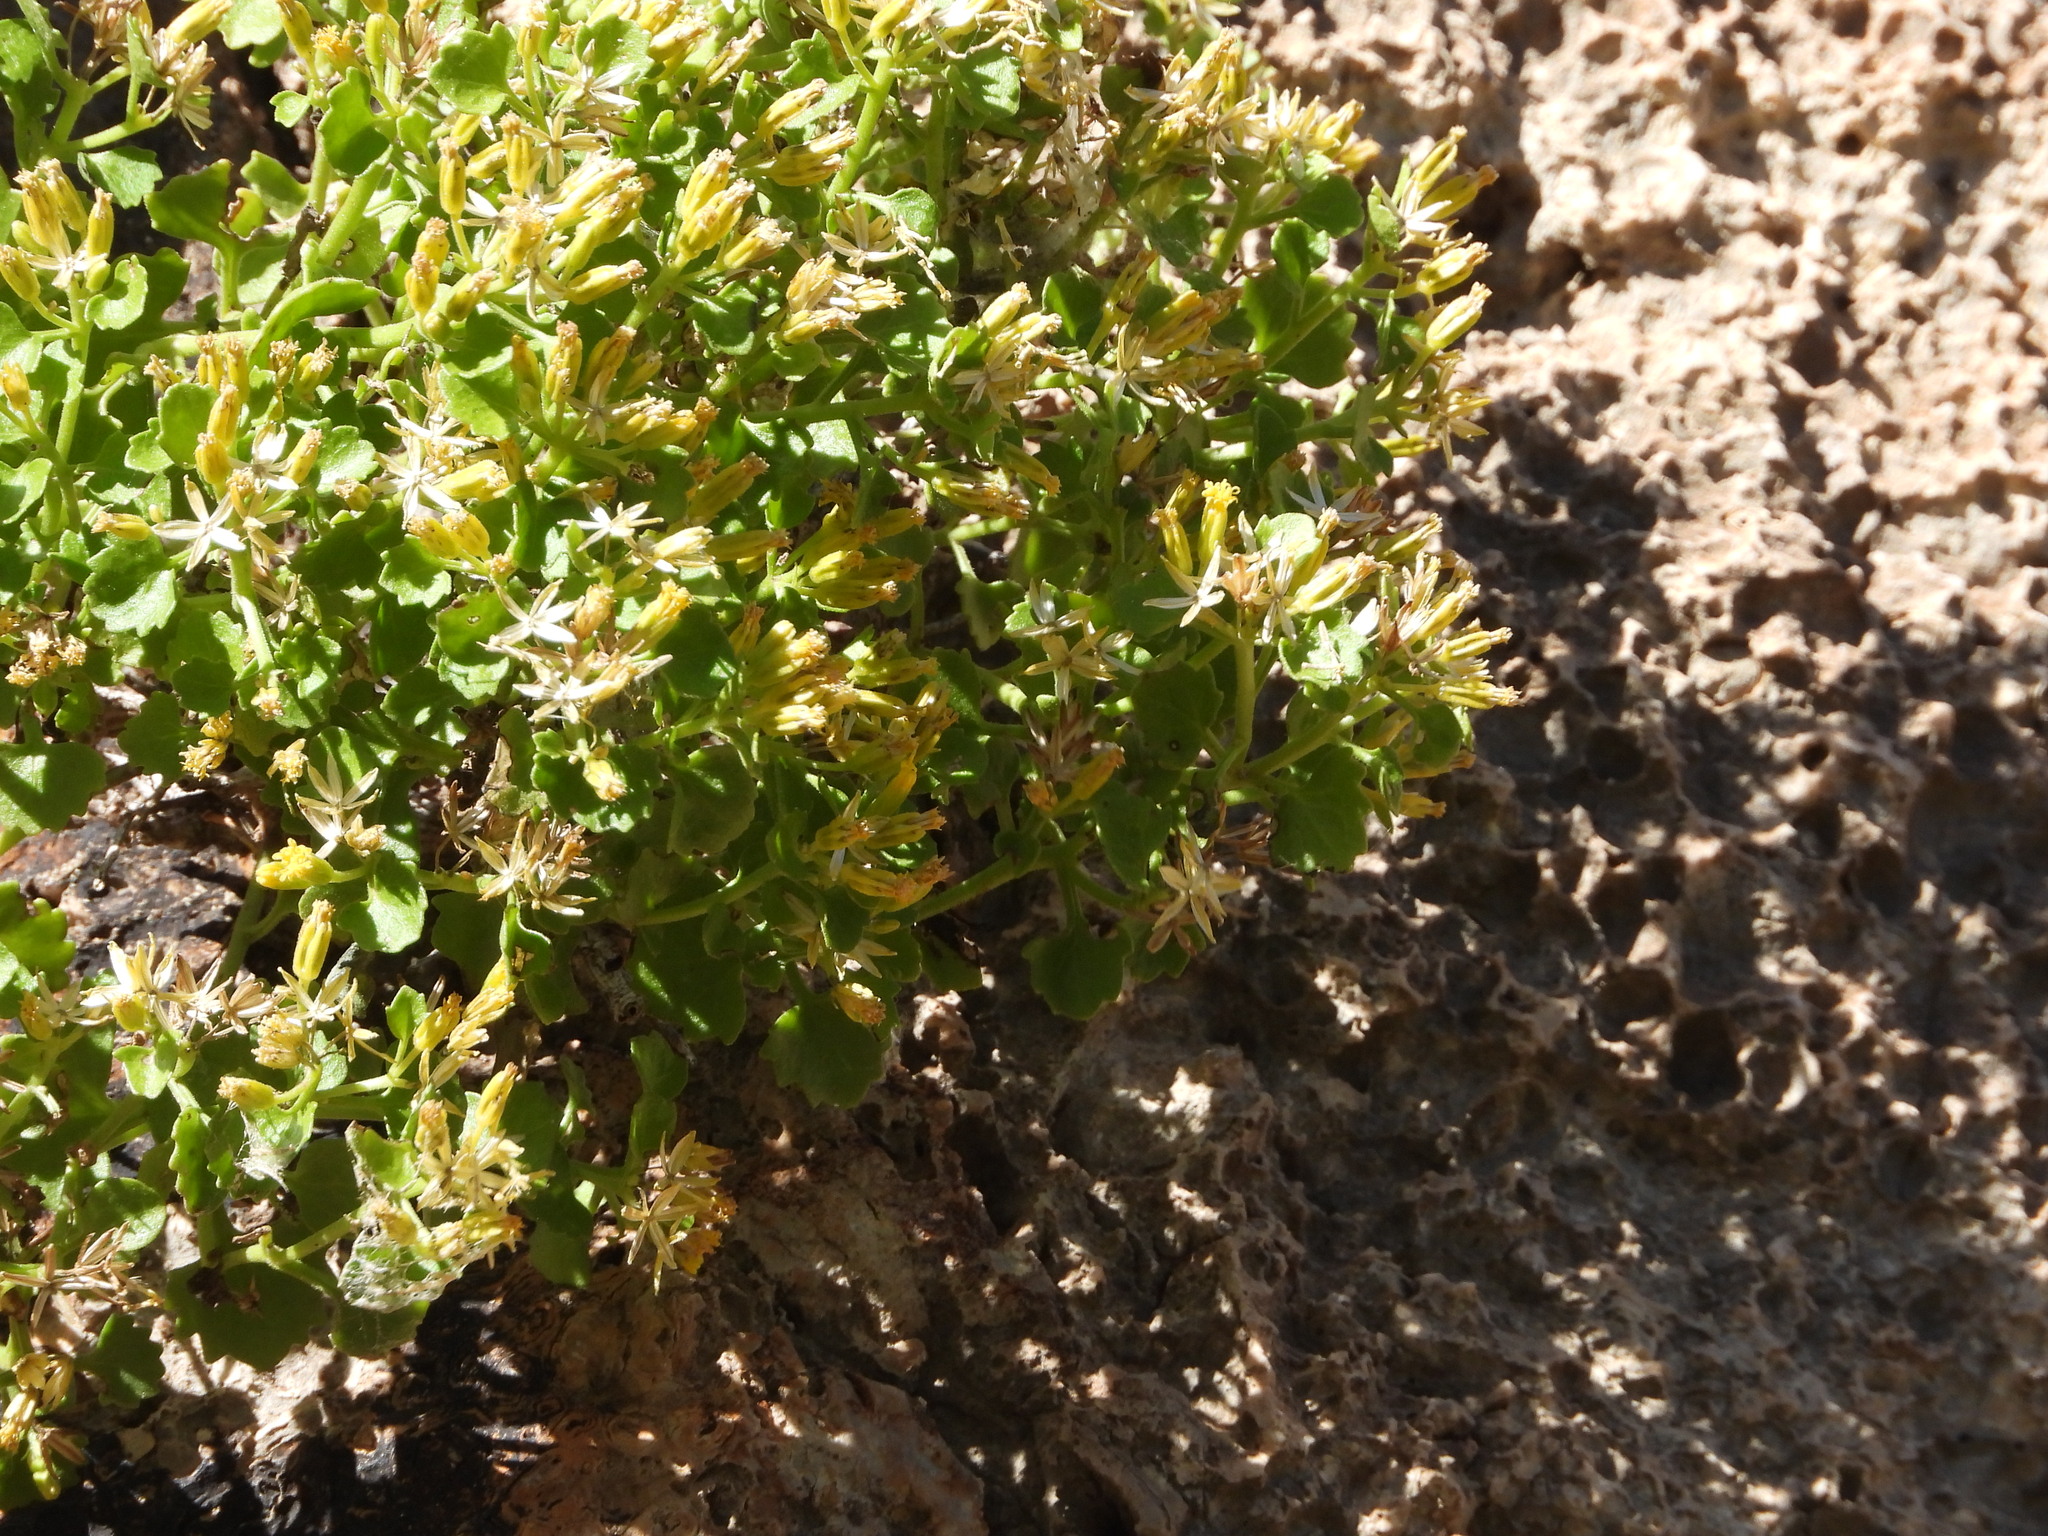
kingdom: Plantae
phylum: Tracheophyta
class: Magnoliopsida
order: Asterales
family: Asteraceae
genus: Laphamia
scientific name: Laphamia quinqueflora
